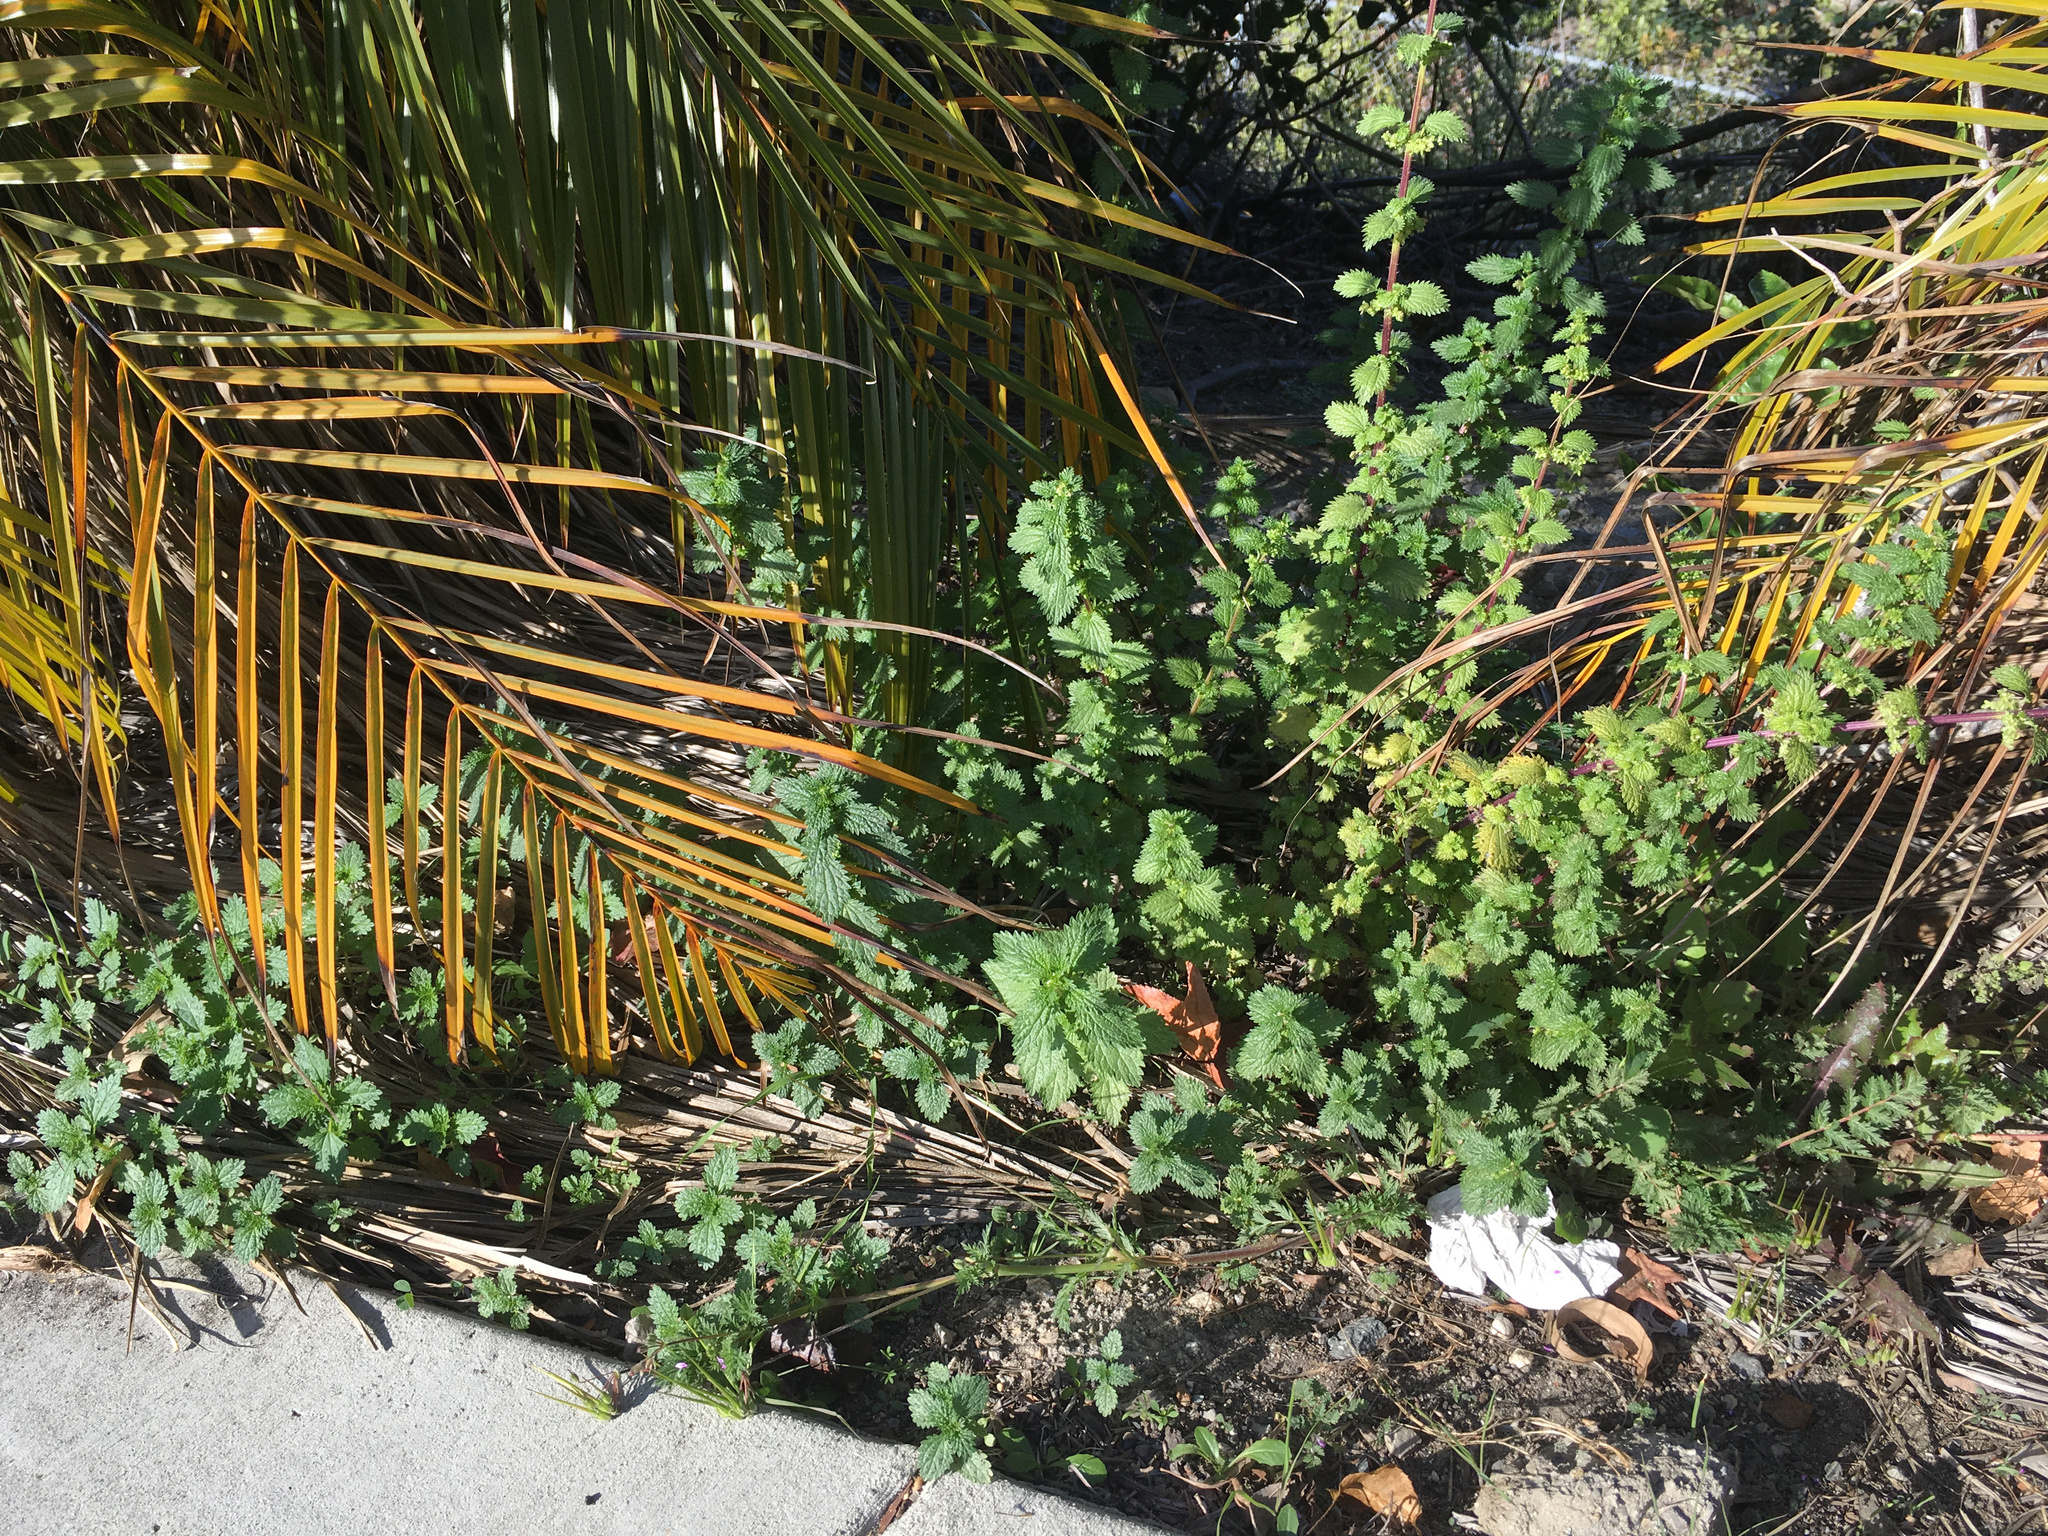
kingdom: Plantae
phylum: Tracheophyta
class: Magnoliopsida
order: Rosales
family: Urticaceae
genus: Urtica
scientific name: Urtica urens
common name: Dwarf nettle
